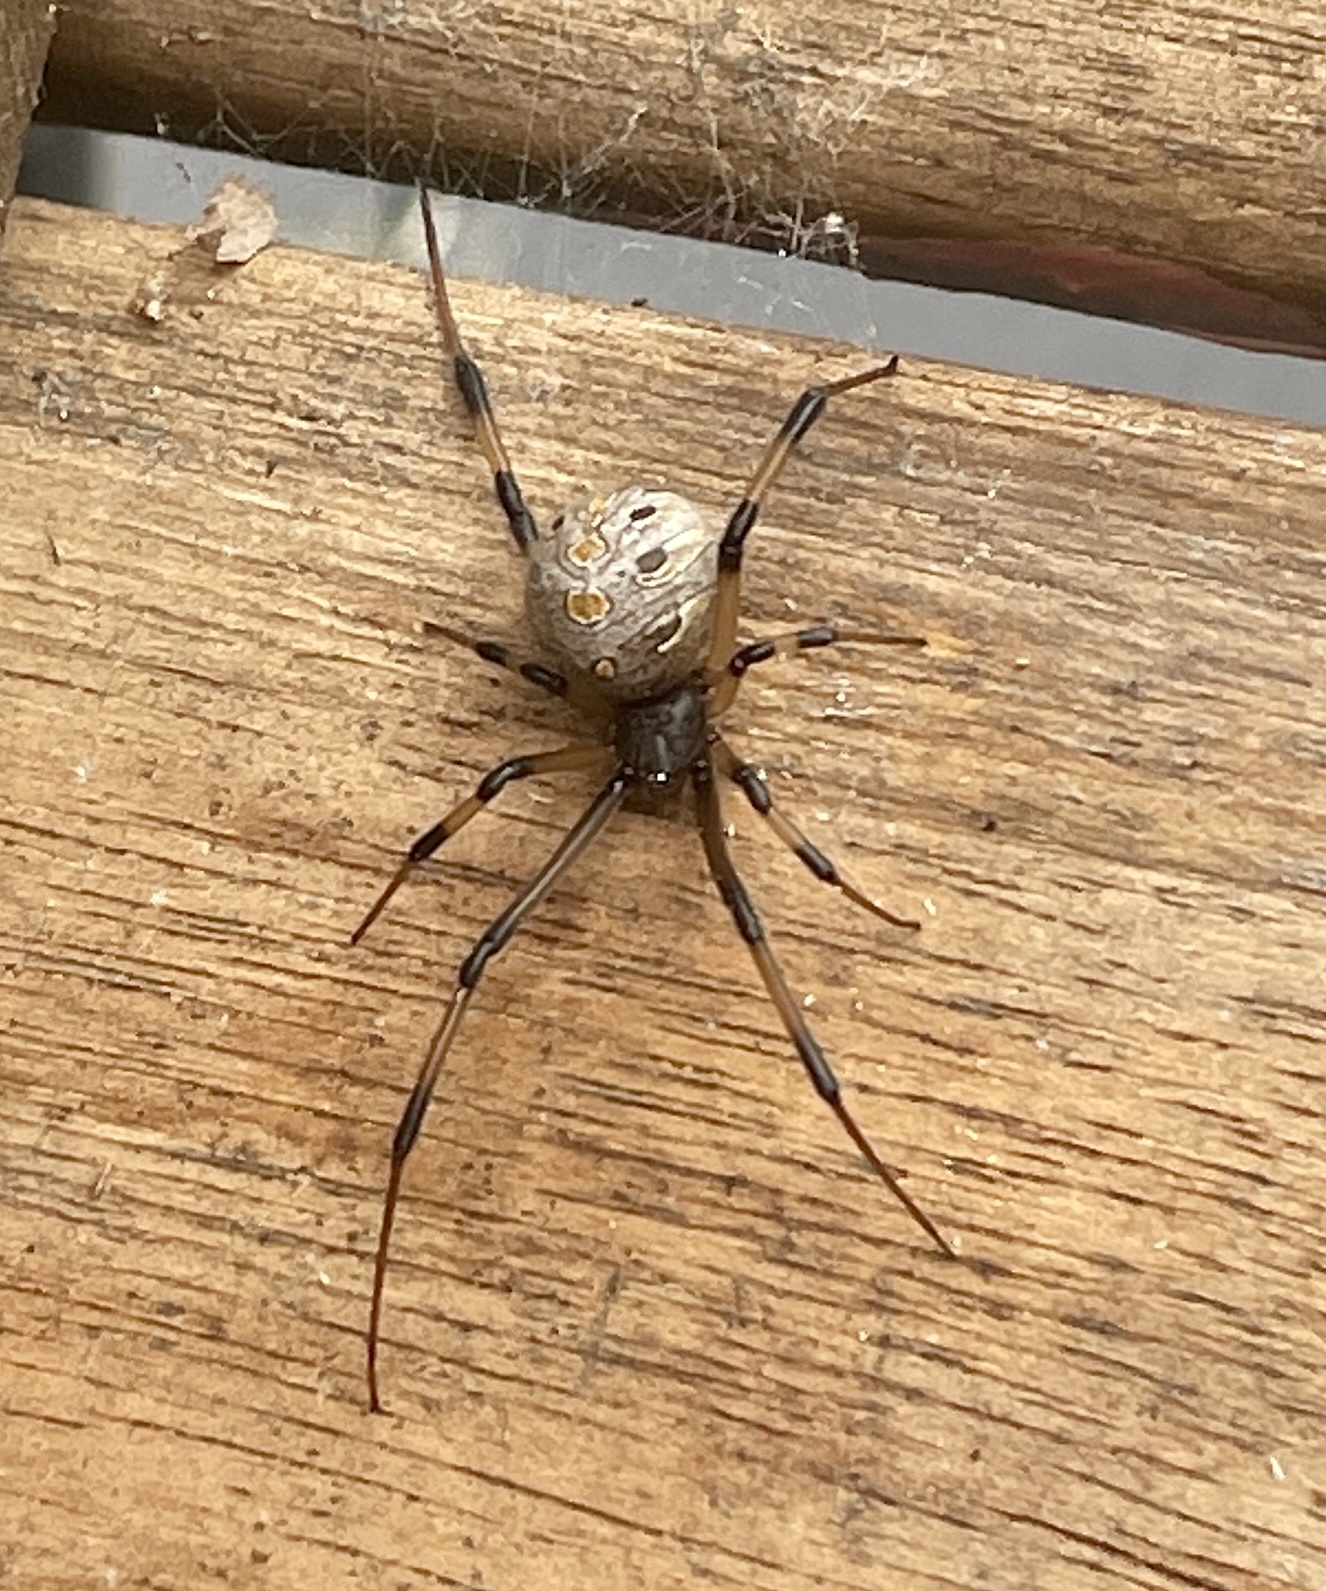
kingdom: Animalia
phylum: Arthropoda
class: Arachnida
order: Araneae
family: Theridiidae
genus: Latrodectus
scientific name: Latrodectus geometricus
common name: Brown widow spider
